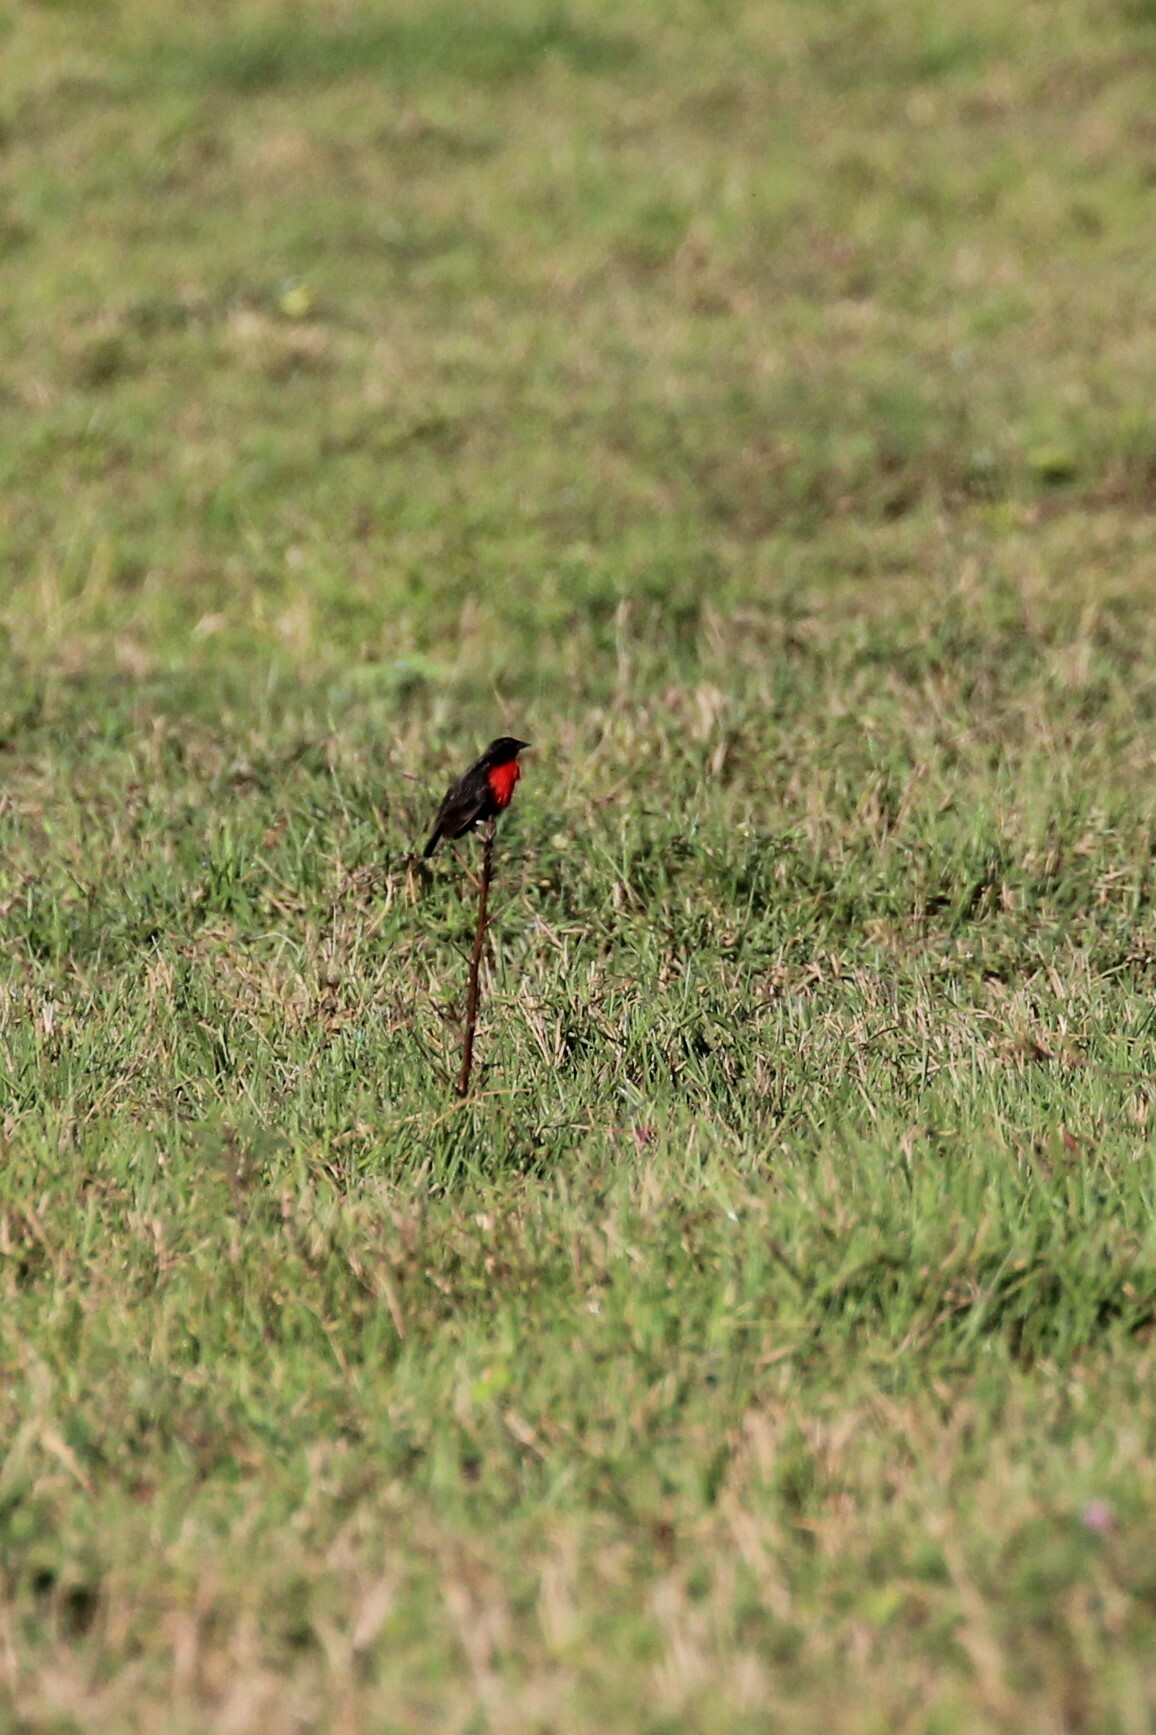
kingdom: Animalia
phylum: Chordata
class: Aves
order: Passeriformes
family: Icteridae
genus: Sturnella
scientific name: Sturnella militaris
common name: Red-breasted blackbird
